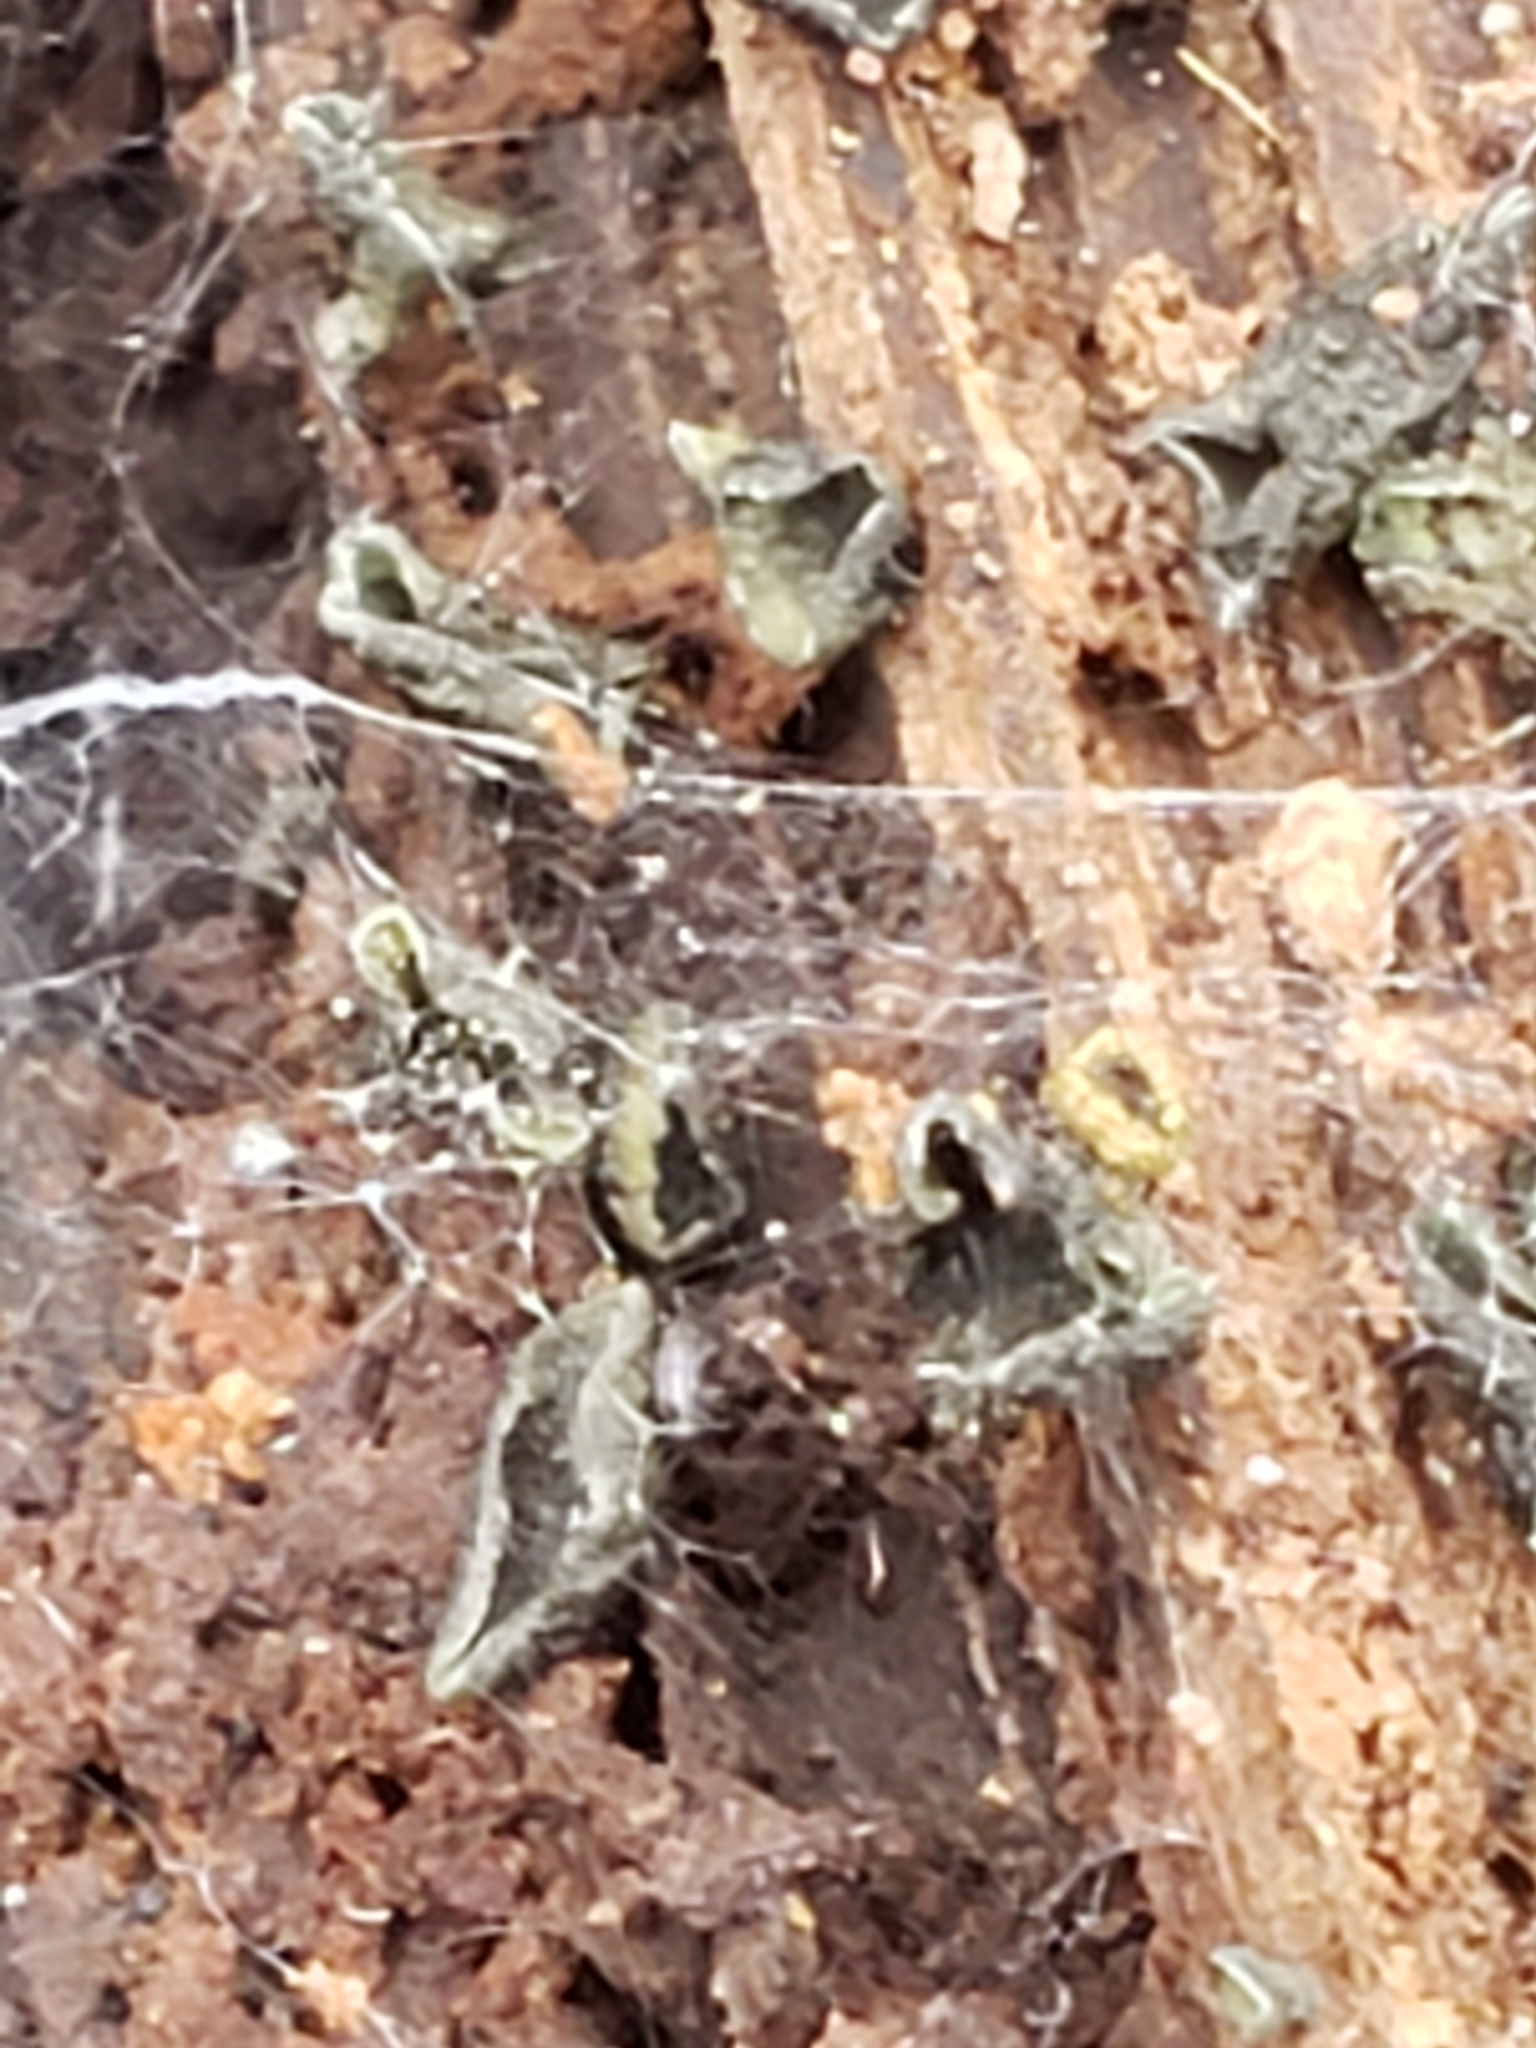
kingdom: Fungi
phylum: Ascomycota
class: Leotiomycetes
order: Helotiales
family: Chlorospleniaceae
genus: Chlorosplenium
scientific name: Chlorosplenium chlora
